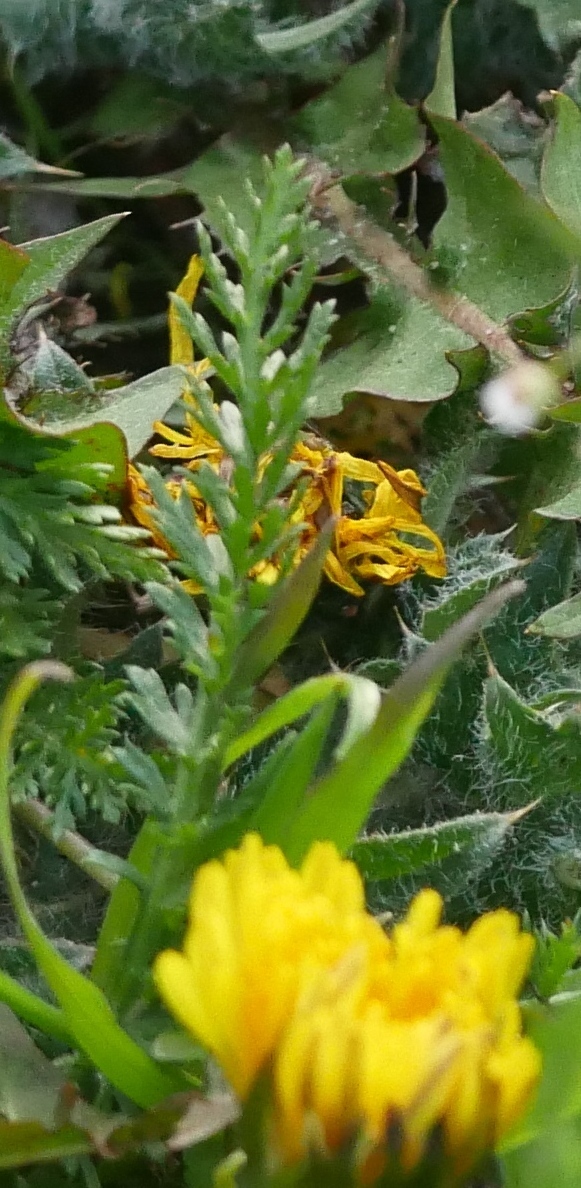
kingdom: Plantae
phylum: Tracheophyta
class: Magnoliopsida
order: Asterales
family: Asteraceae
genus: Achillea
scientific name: Achillea millefolium
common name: Yarrow
